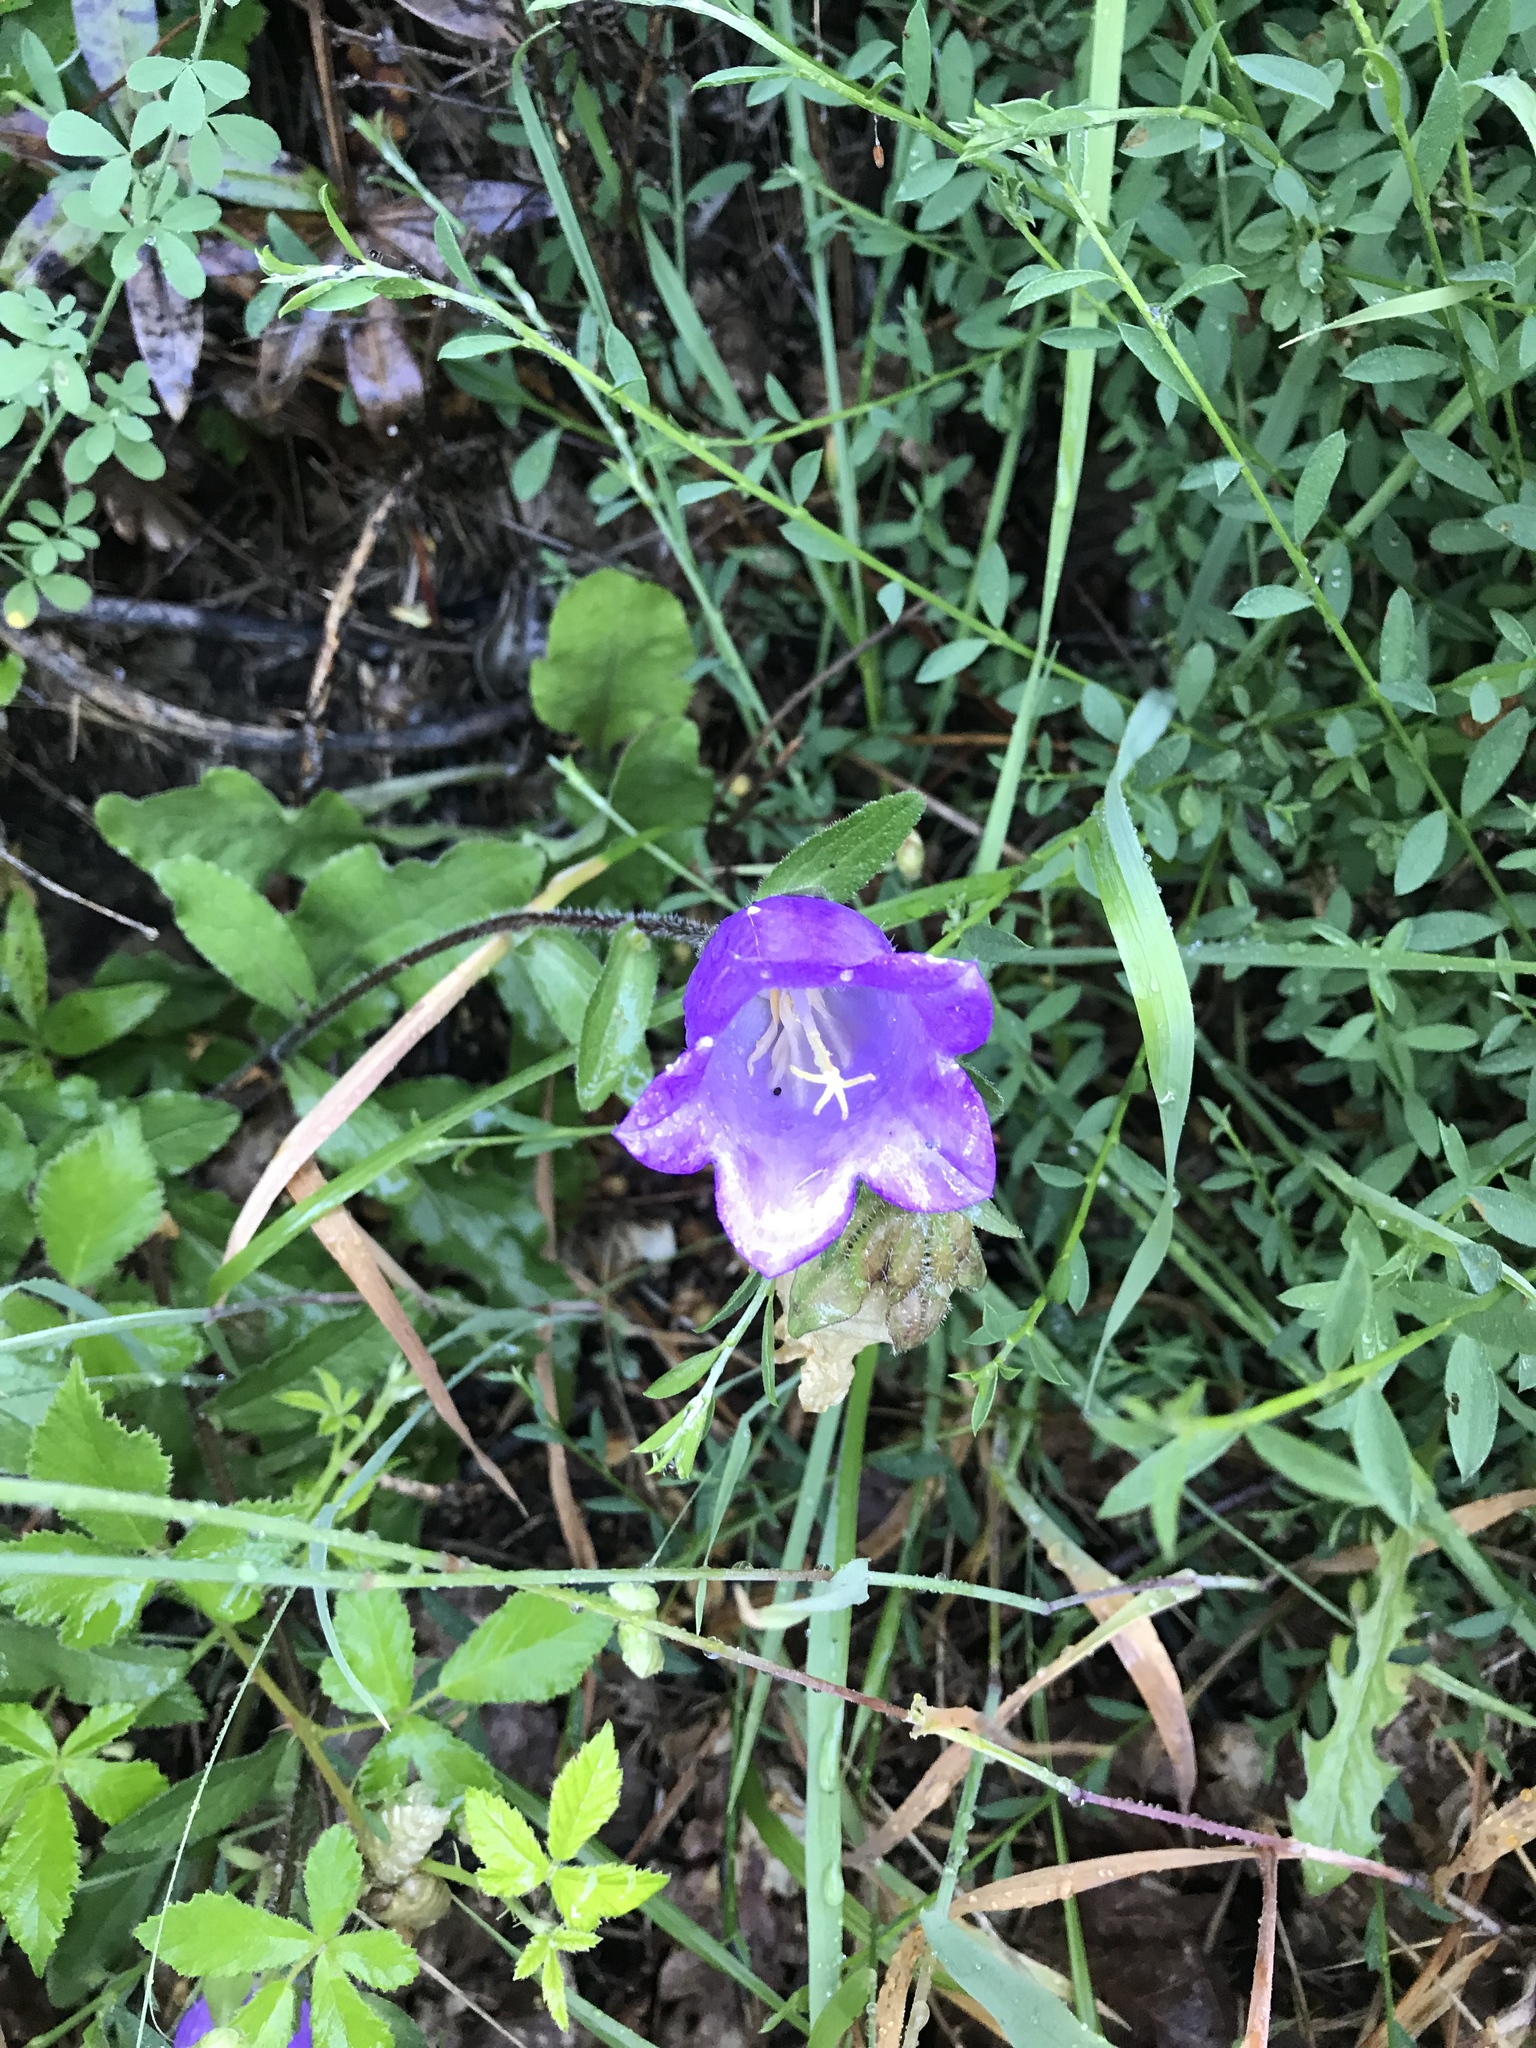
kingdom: Plantae
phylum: Tracheophyta
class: Magnoliopsida
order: Asterales
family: Campanulaceae
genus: Campanula
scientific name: Campanula medium
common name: Canterbury bells
